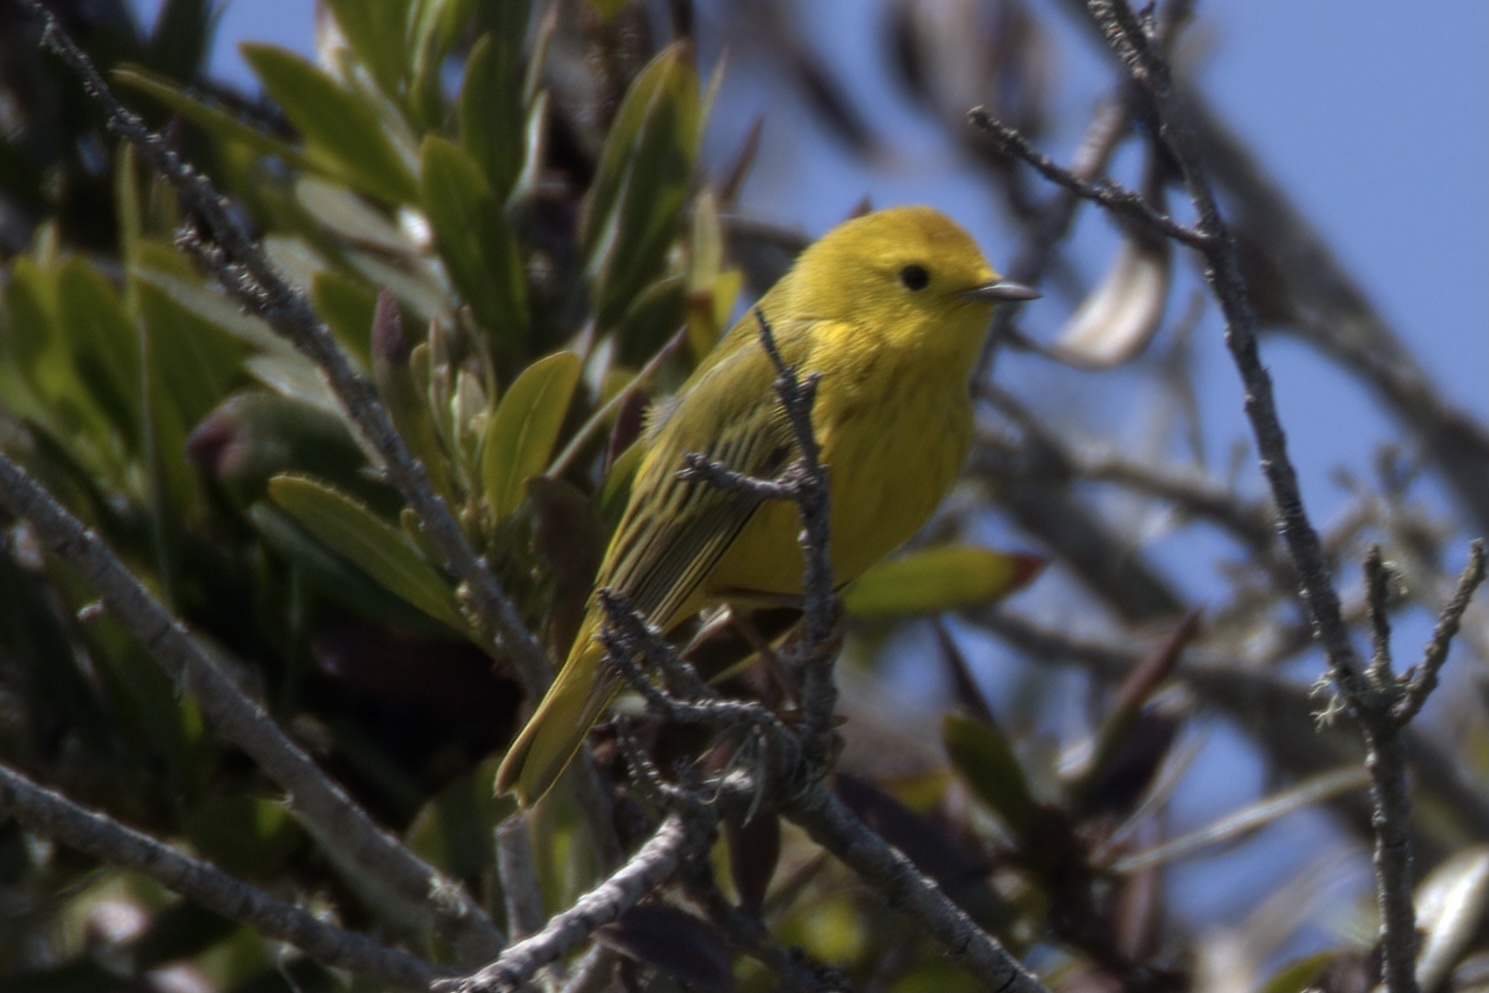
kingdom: Animalia
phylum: Chordata
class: Aves
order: Passeriformes
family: Parulidae
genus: Setophaga
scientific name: Setophaga petechia
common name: Yellow warbler
